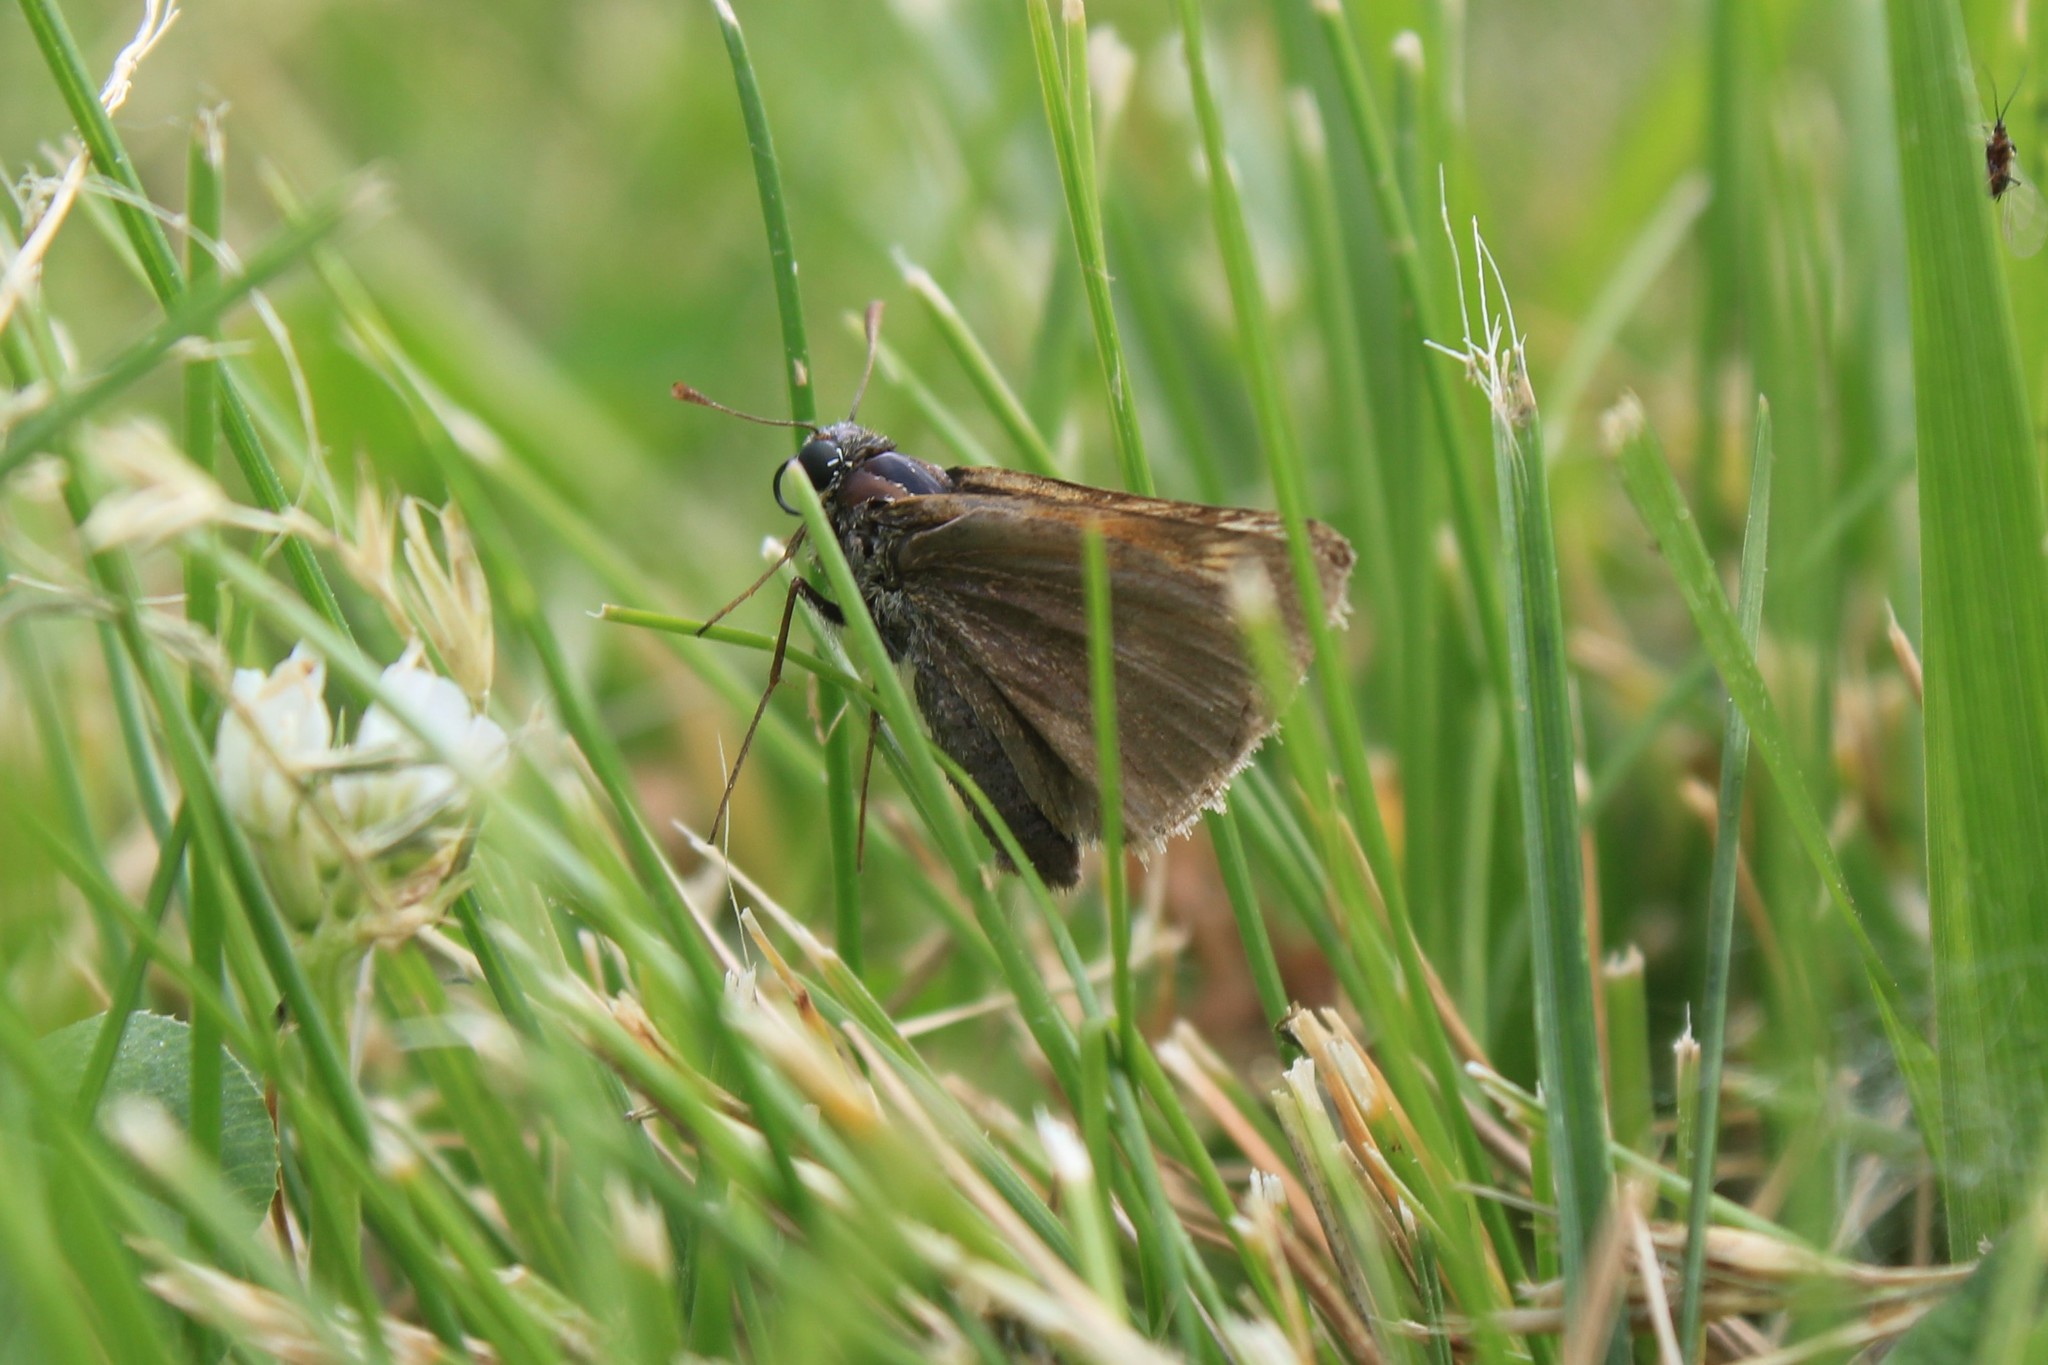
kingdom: Animalia
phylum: Arthropoda
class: Insecta
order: Lepidoptera
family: Hesperiidae
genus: Polites
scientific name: Polites themistocles
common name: Tawny-edged skipper
